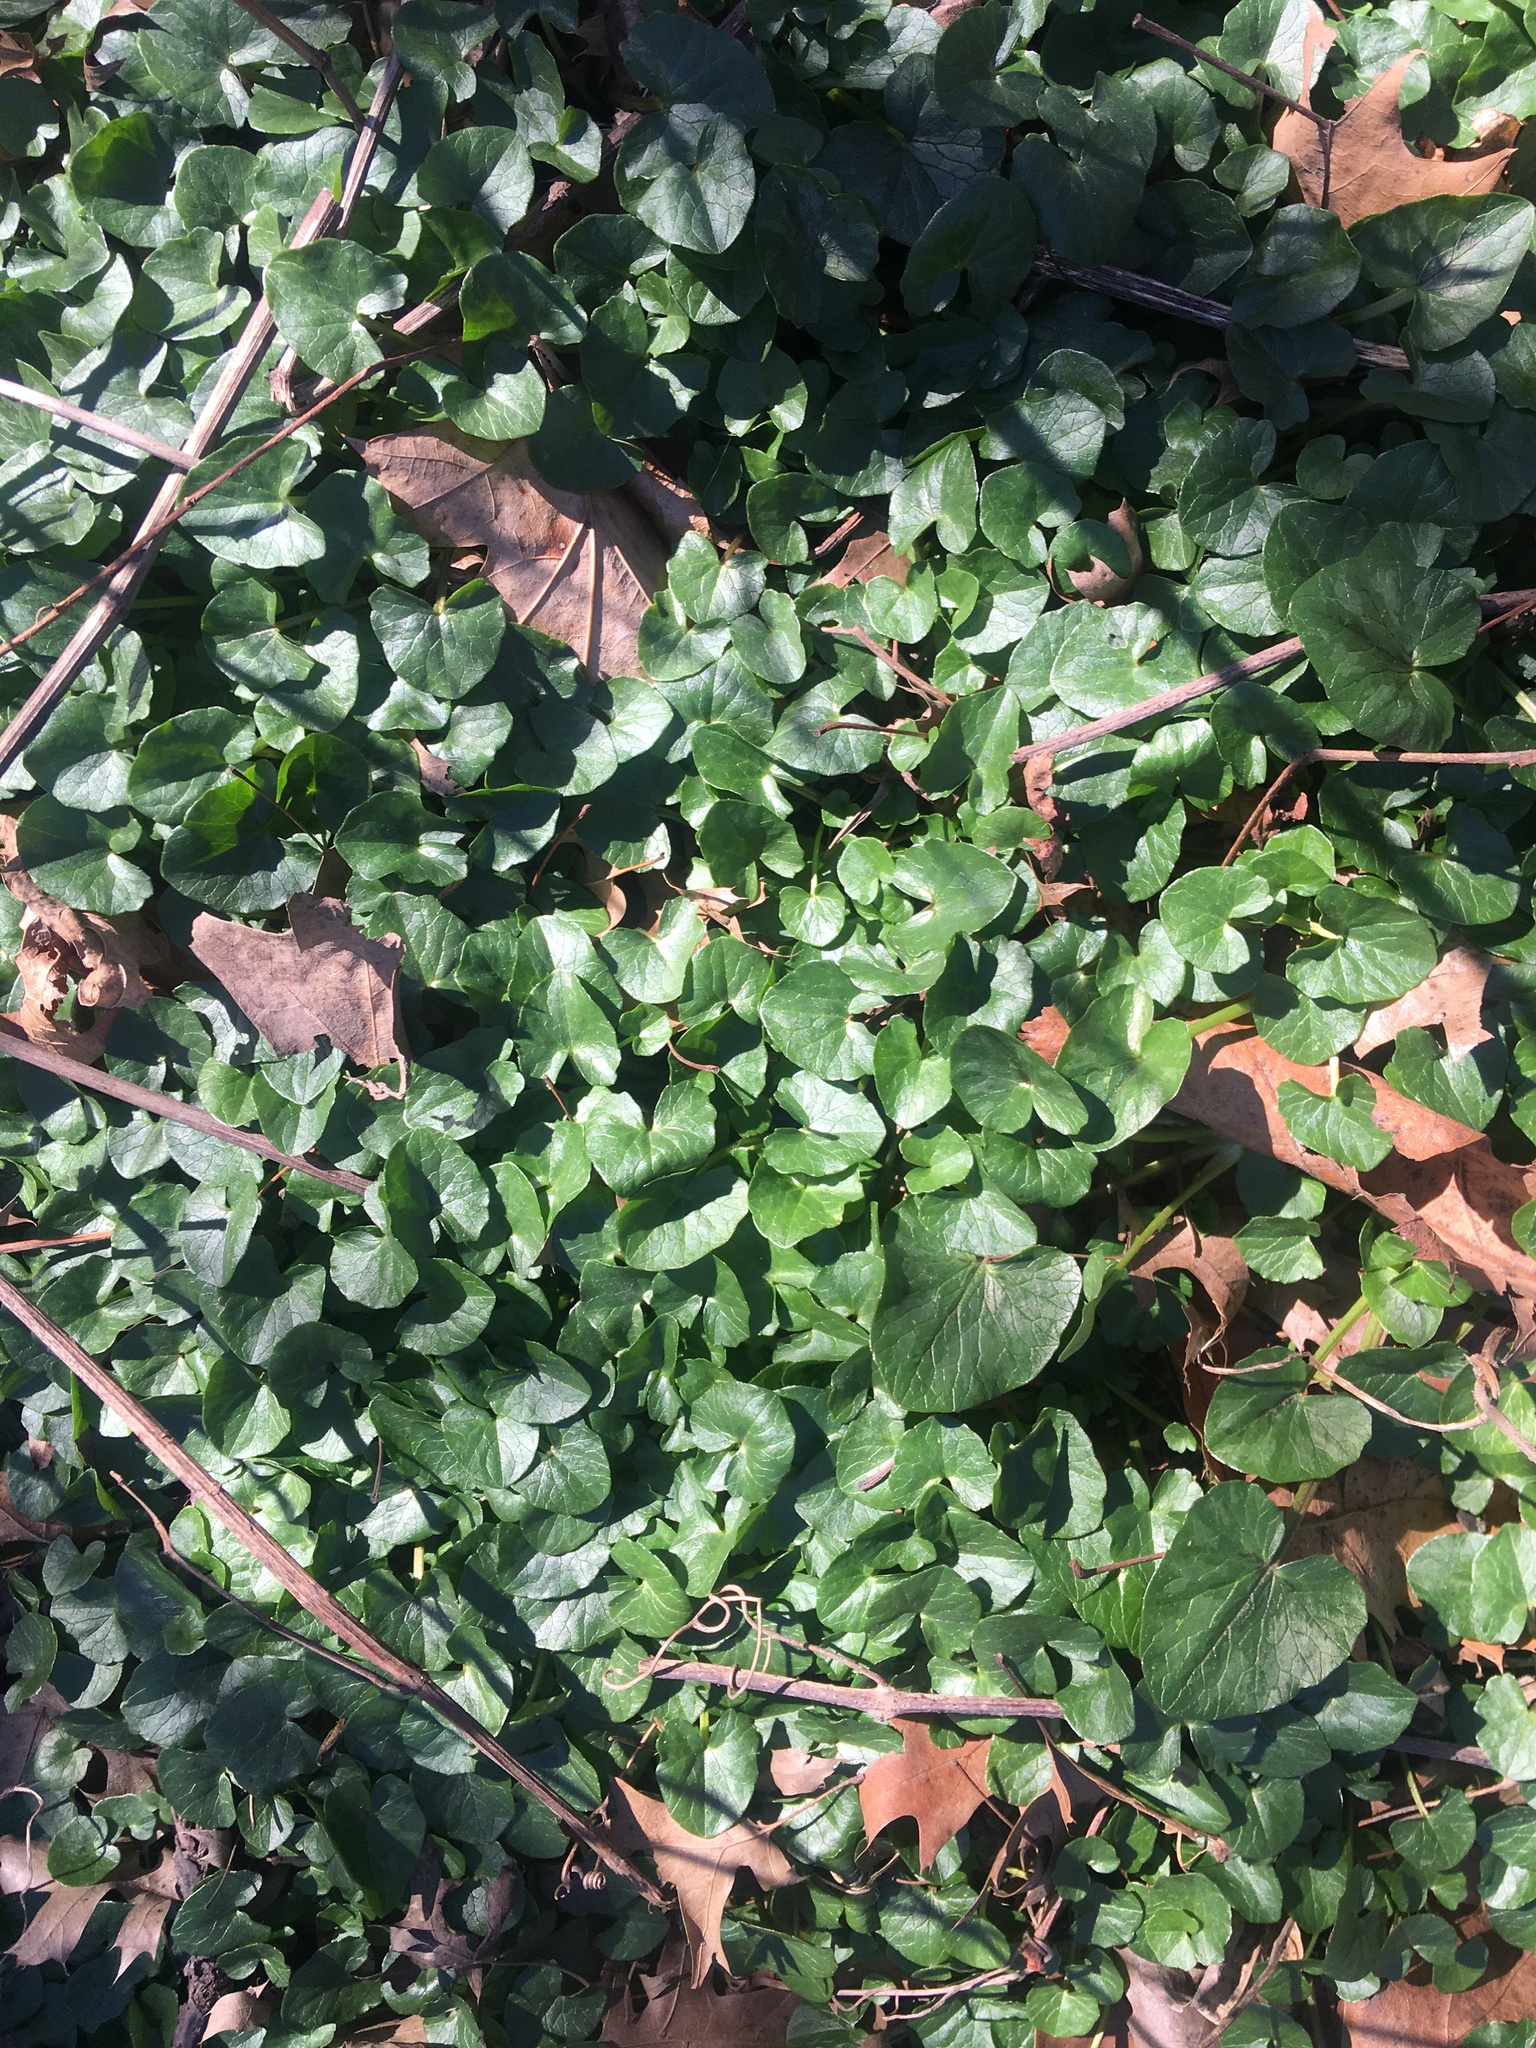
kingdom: Plantae
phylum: Tracheophyta
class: Magnoliopsida
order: Ranunculales
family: Ranunculaceae
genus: Ficaria
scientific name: Ficaria verna
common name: Lesser celandine
